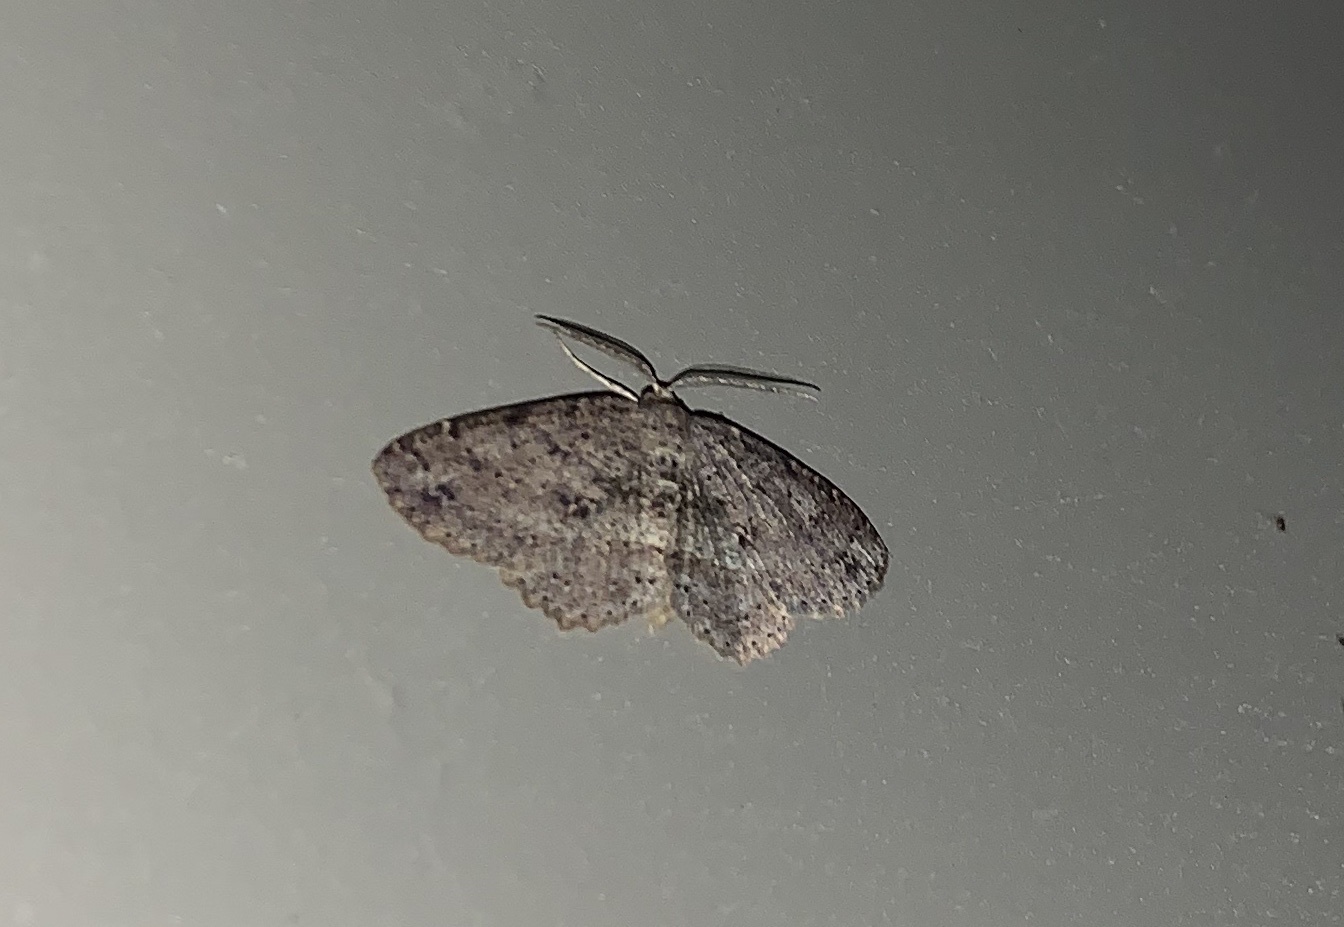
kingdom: Animalia
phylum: Arthropoda
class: Insecta
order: Lepidoptera
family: Geometridae
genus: Melanolophia
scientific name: Melanolophia canadaria
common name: Canadian melanolophia
